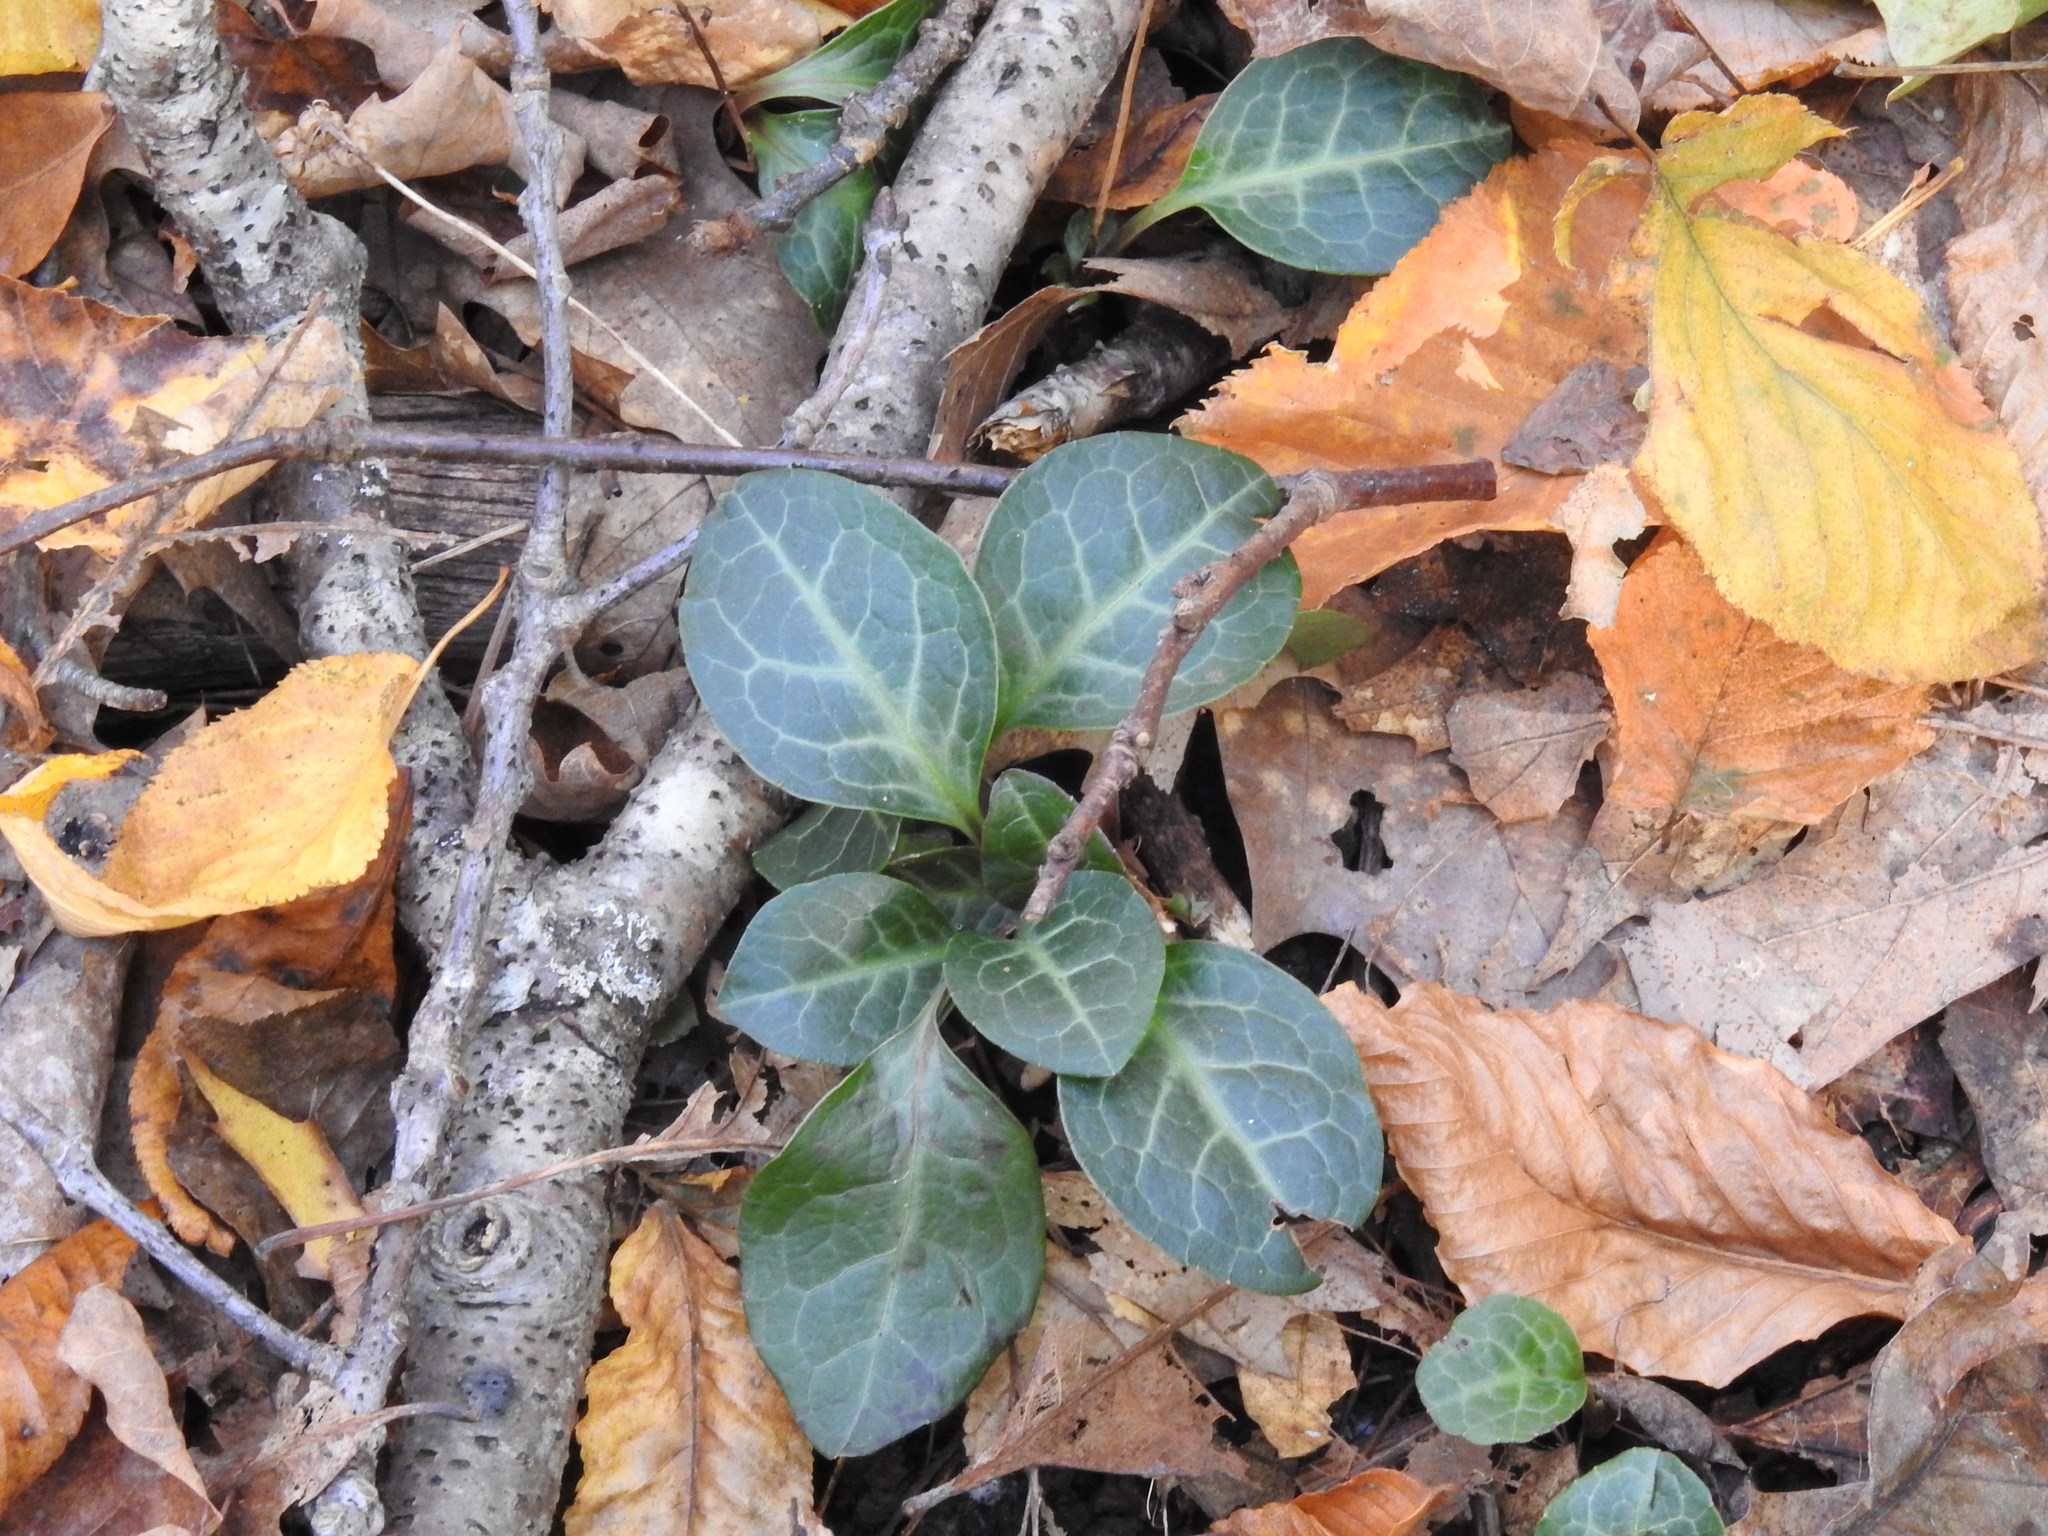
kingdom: Plantae
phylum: Tracheophyta
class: Magnoliopsida
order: Ericales
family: Ericaceae
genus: Pyrola
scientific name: Pyrola americana
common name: American wintergreen
